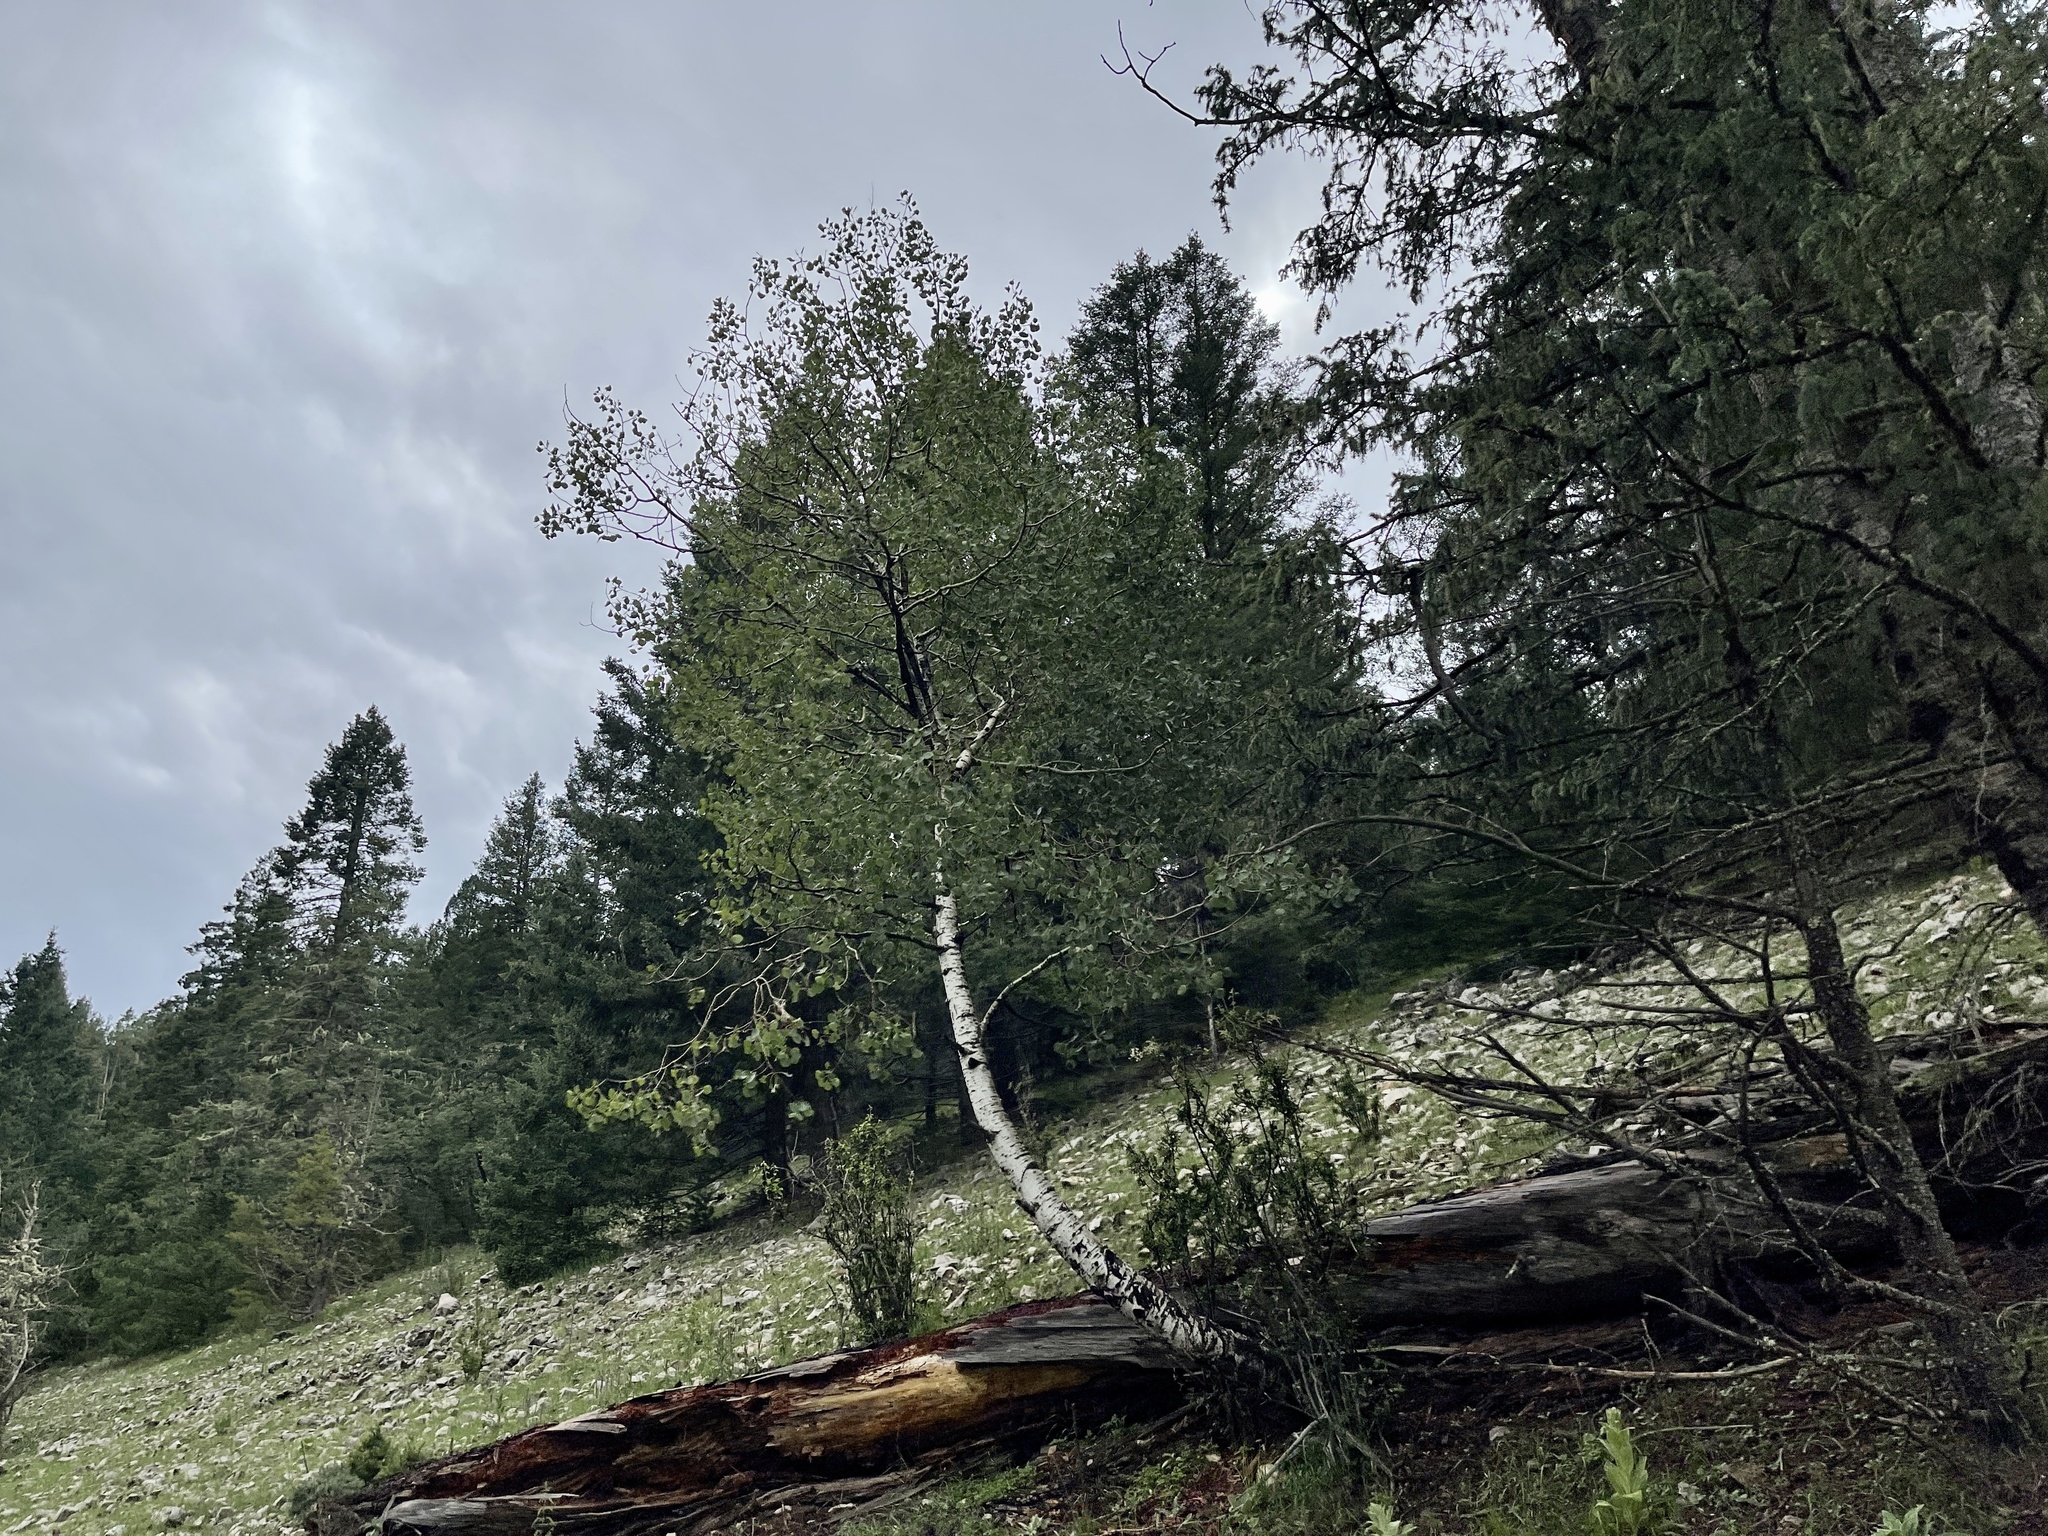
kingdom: Plantae
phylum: Tracheophyta
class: Magnoliopsida
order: Malpighiales
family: Salicaceae
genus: Populus
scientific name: Populus tremuloides
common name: Quaking aspen
